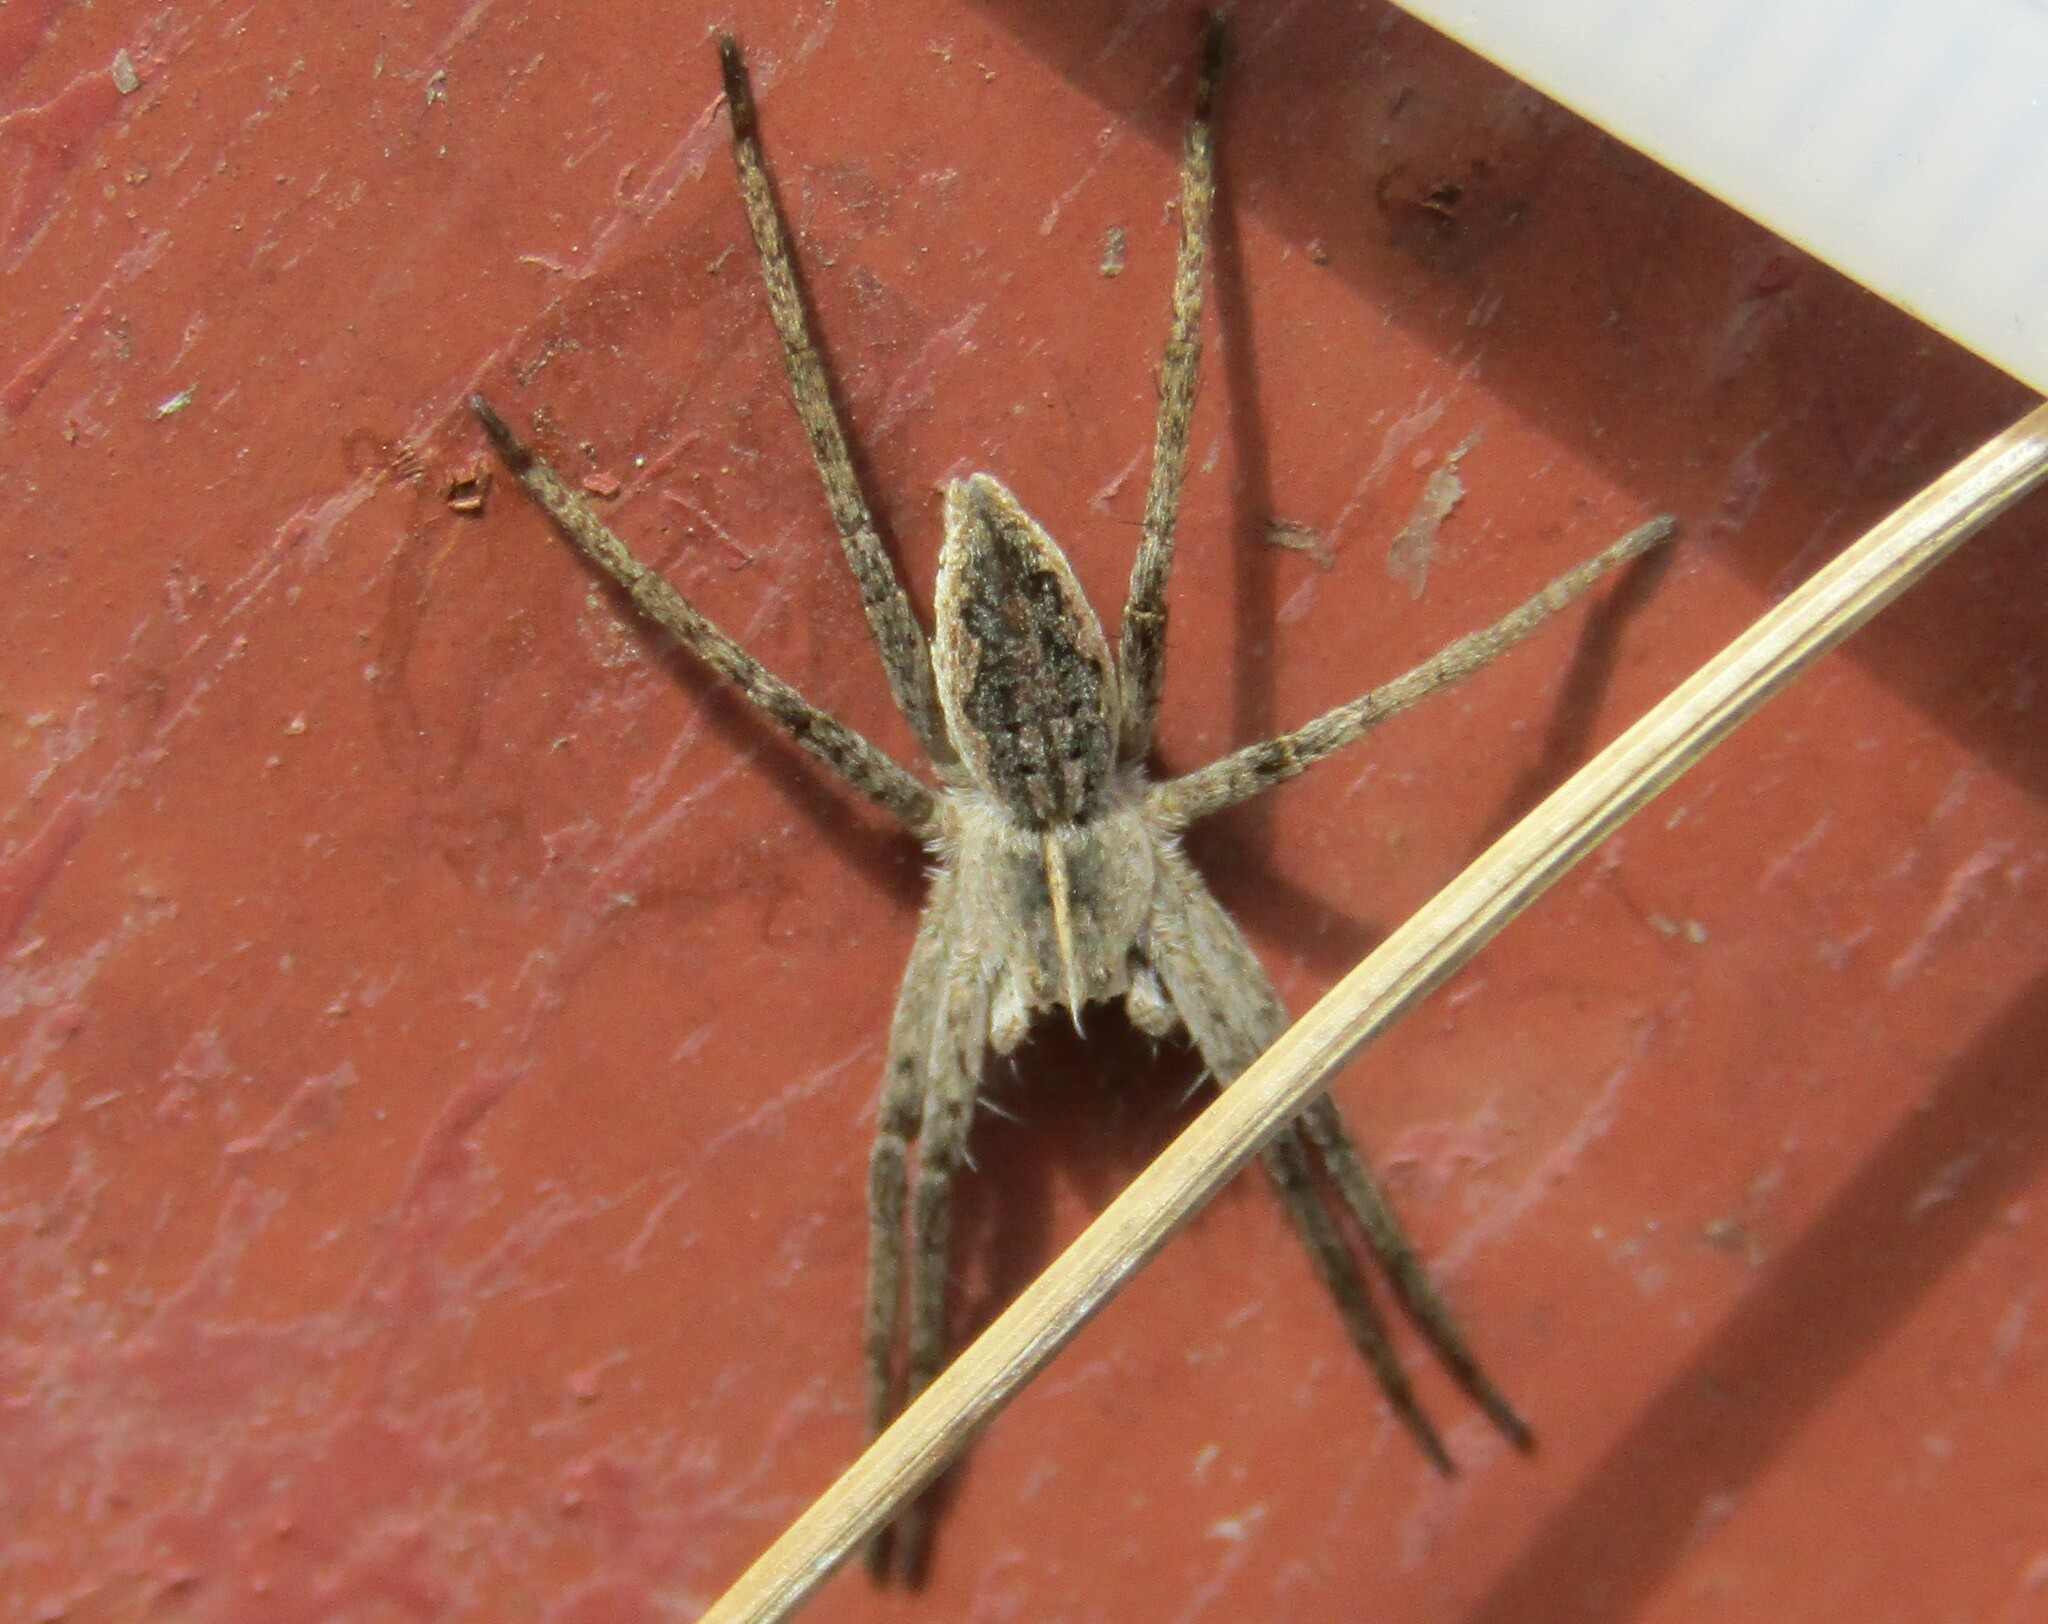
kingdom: Animalia
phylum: Arthropoda
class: Arachnida
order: Araneae
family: Pisauridae
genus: Pisaura
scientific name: Pisaura mirabilis
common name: Tent spider
